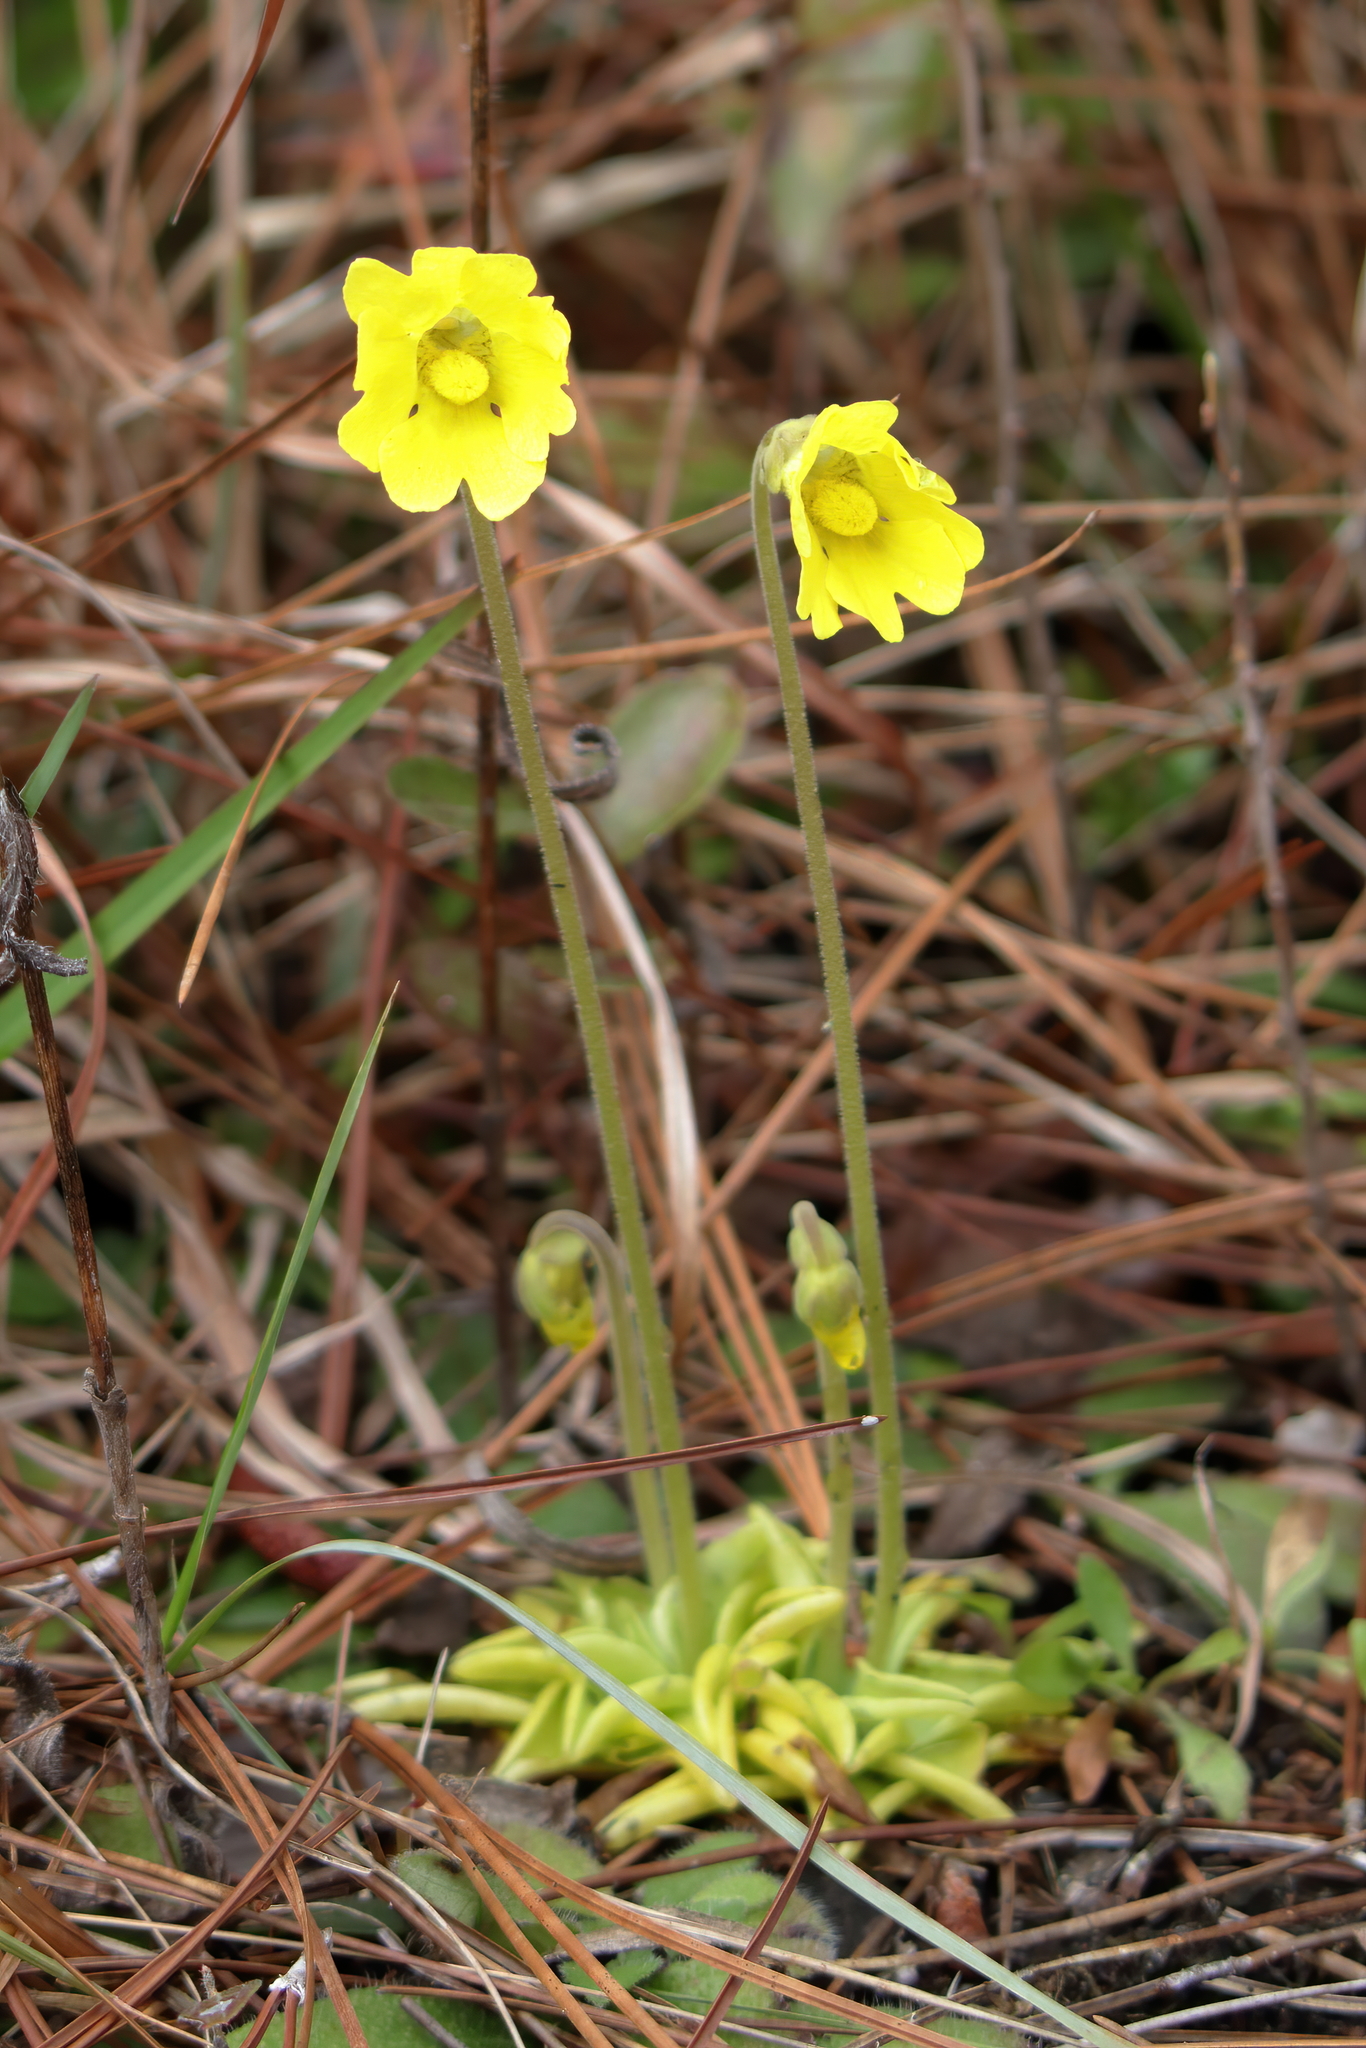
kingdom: Plantae
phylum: Tracheophyta
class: Magnoliopsida
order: Lamiales
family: Lentibulariaceae
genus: Pinguicula
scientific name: Pinguicula lutea
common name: Yellow butterwort
